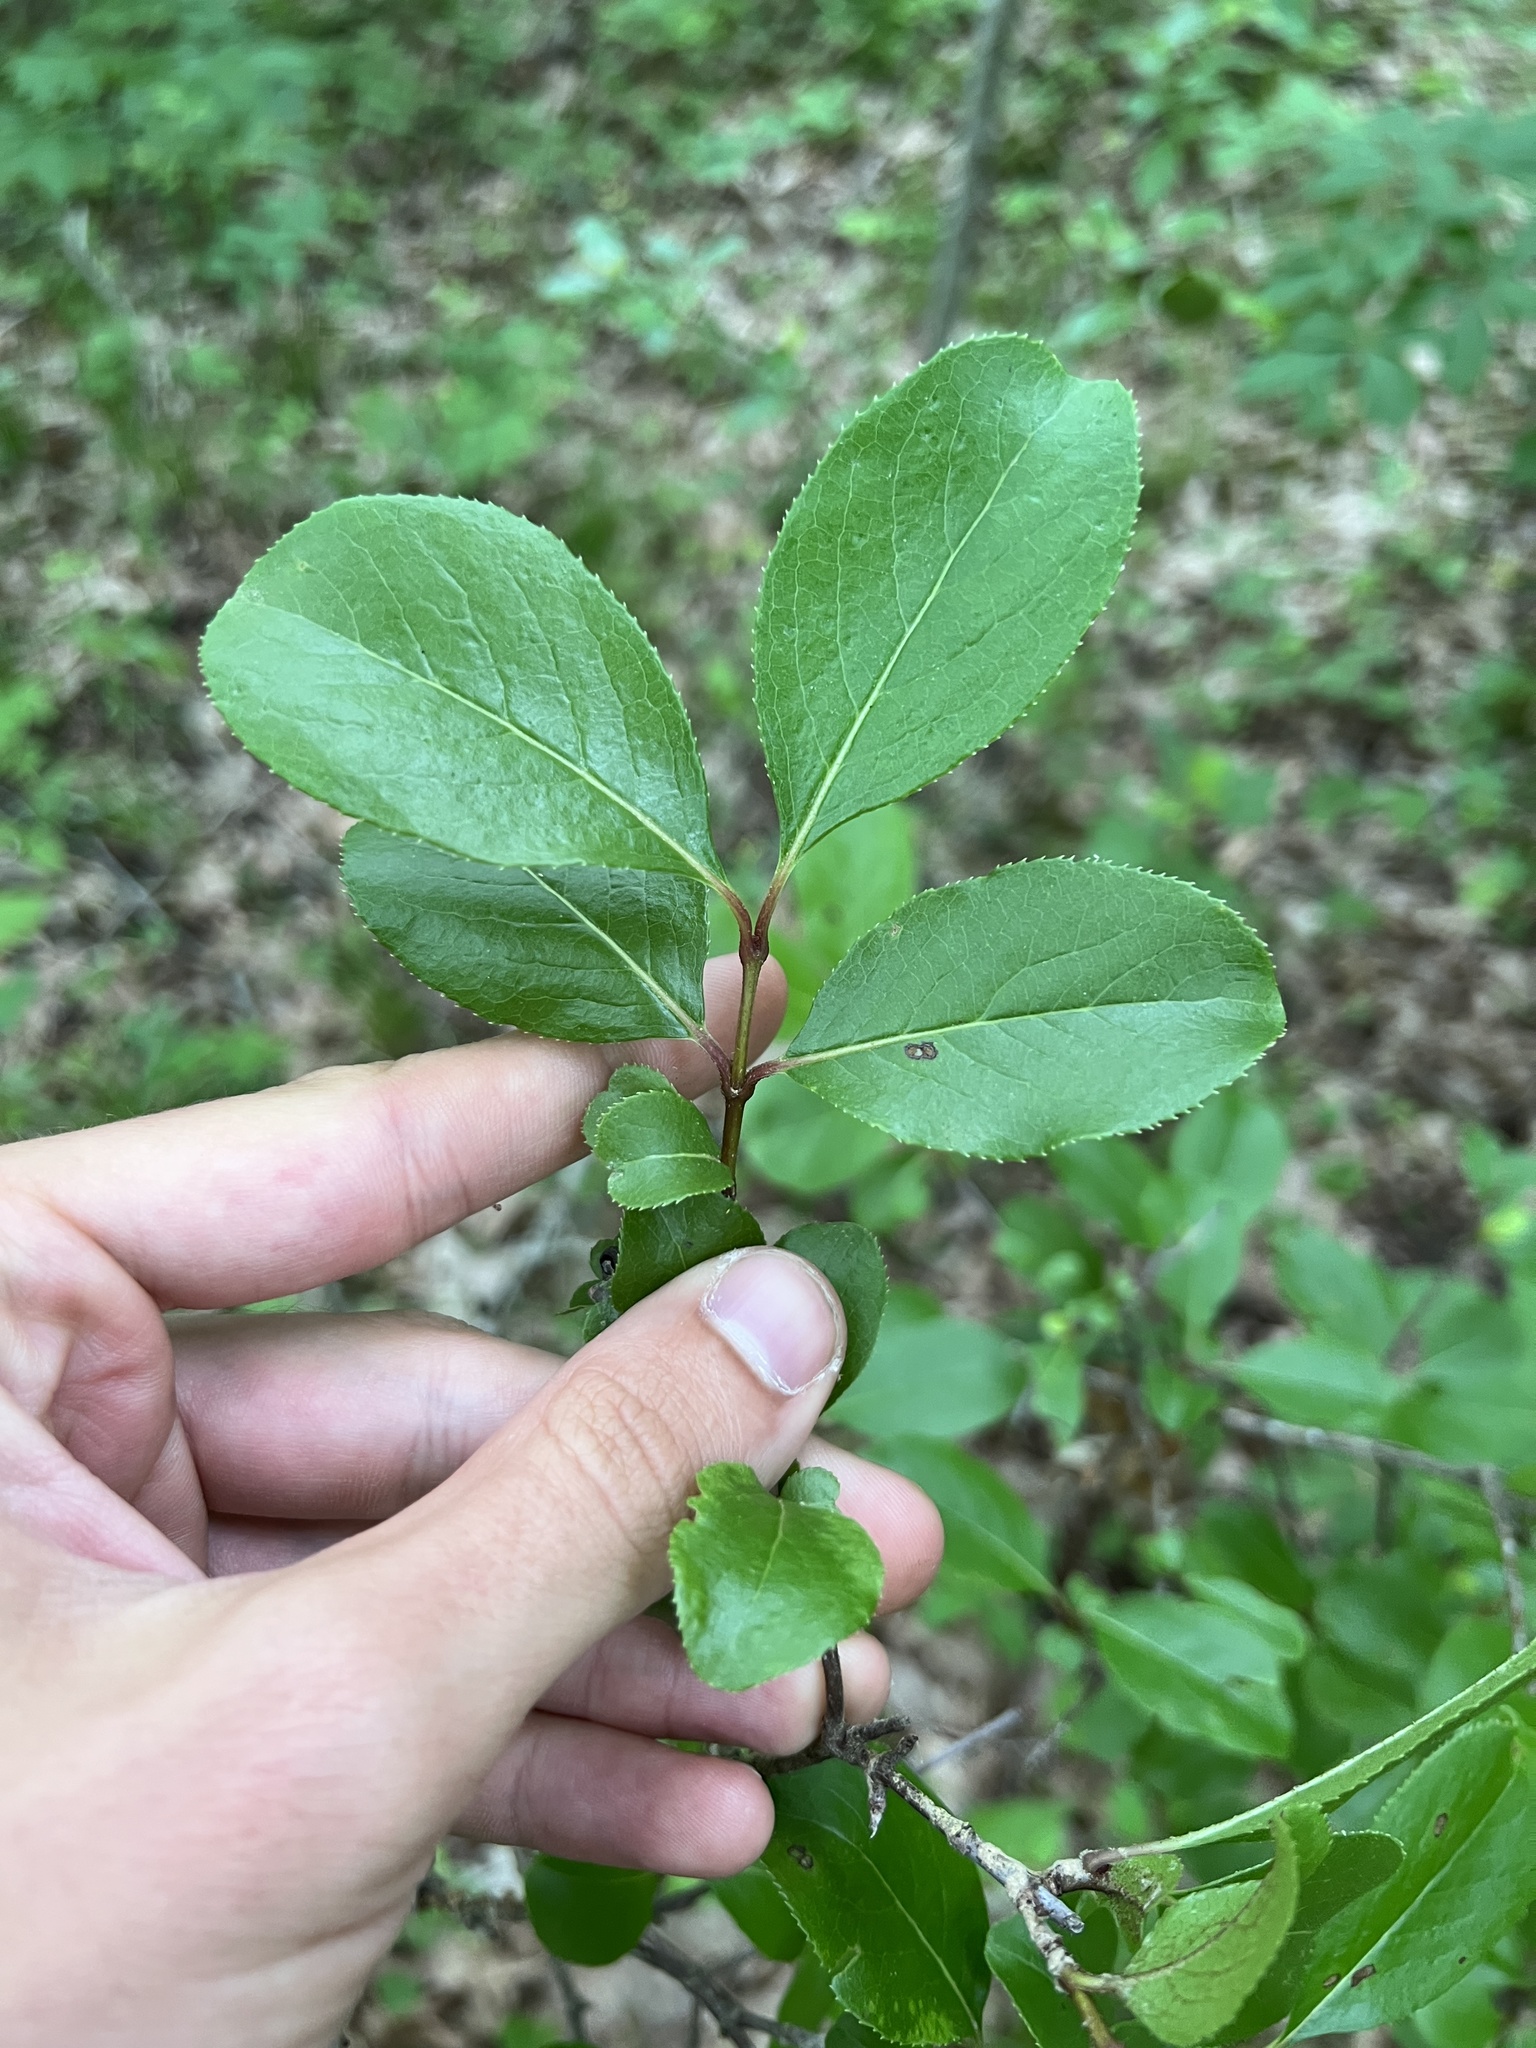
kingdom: Plantae
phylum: Tracheophyta
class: Magnoliopsida
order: Dipsacales
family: Viburnaceae
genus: Viburnum
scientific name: Viburnum rufidulum
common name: Blue haw
